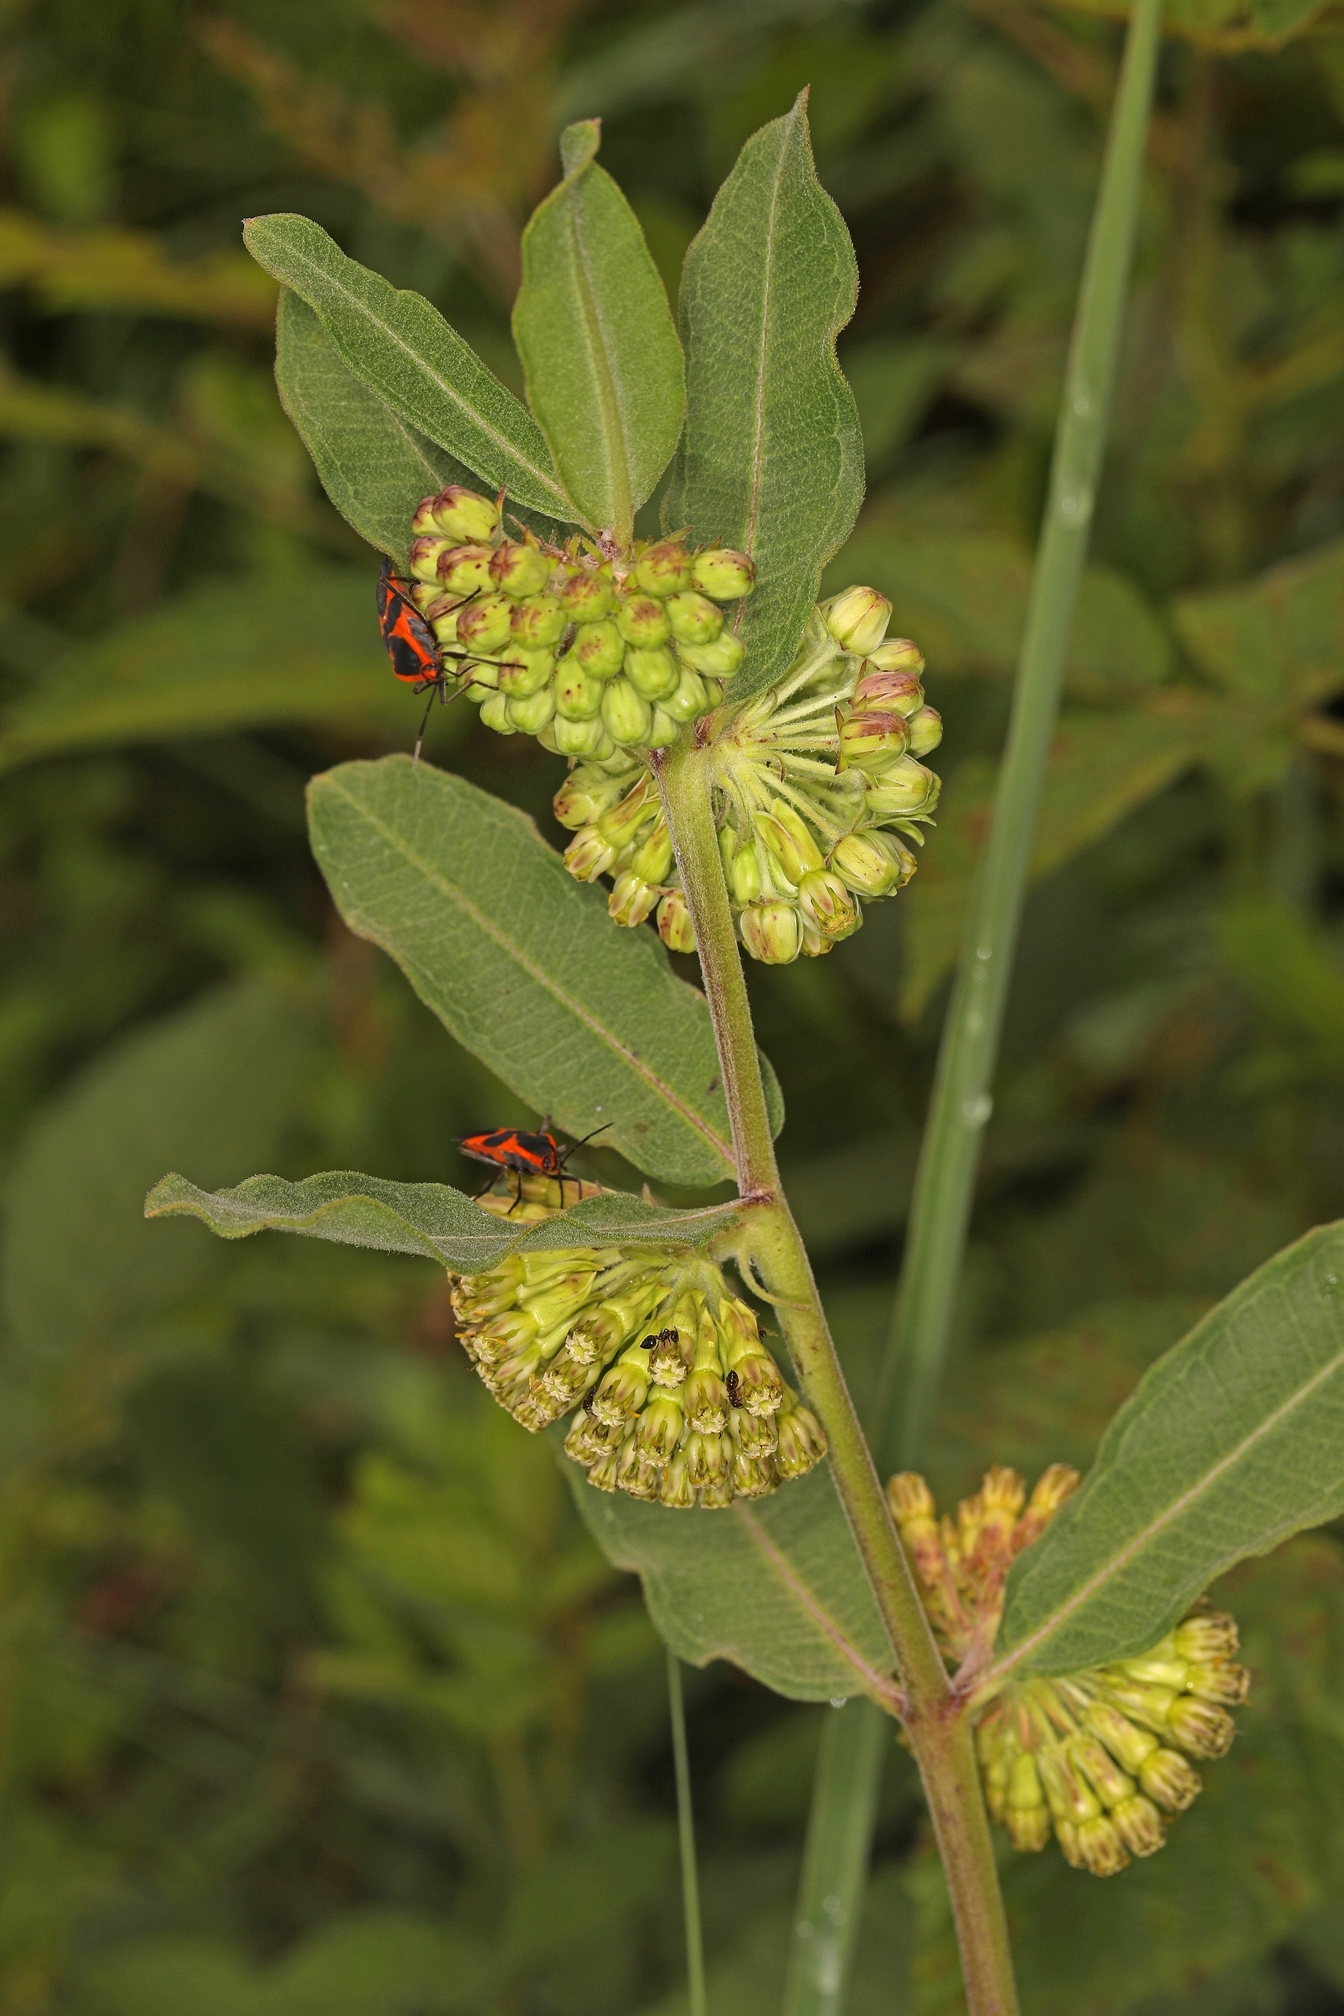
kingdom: Plantae
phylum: Tracheophyta
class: Magnoliopsida
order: Gentianales
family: Apocynaceae
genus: Asclepias
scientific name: Asclepias viridiflora
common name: Green comet milkweed
